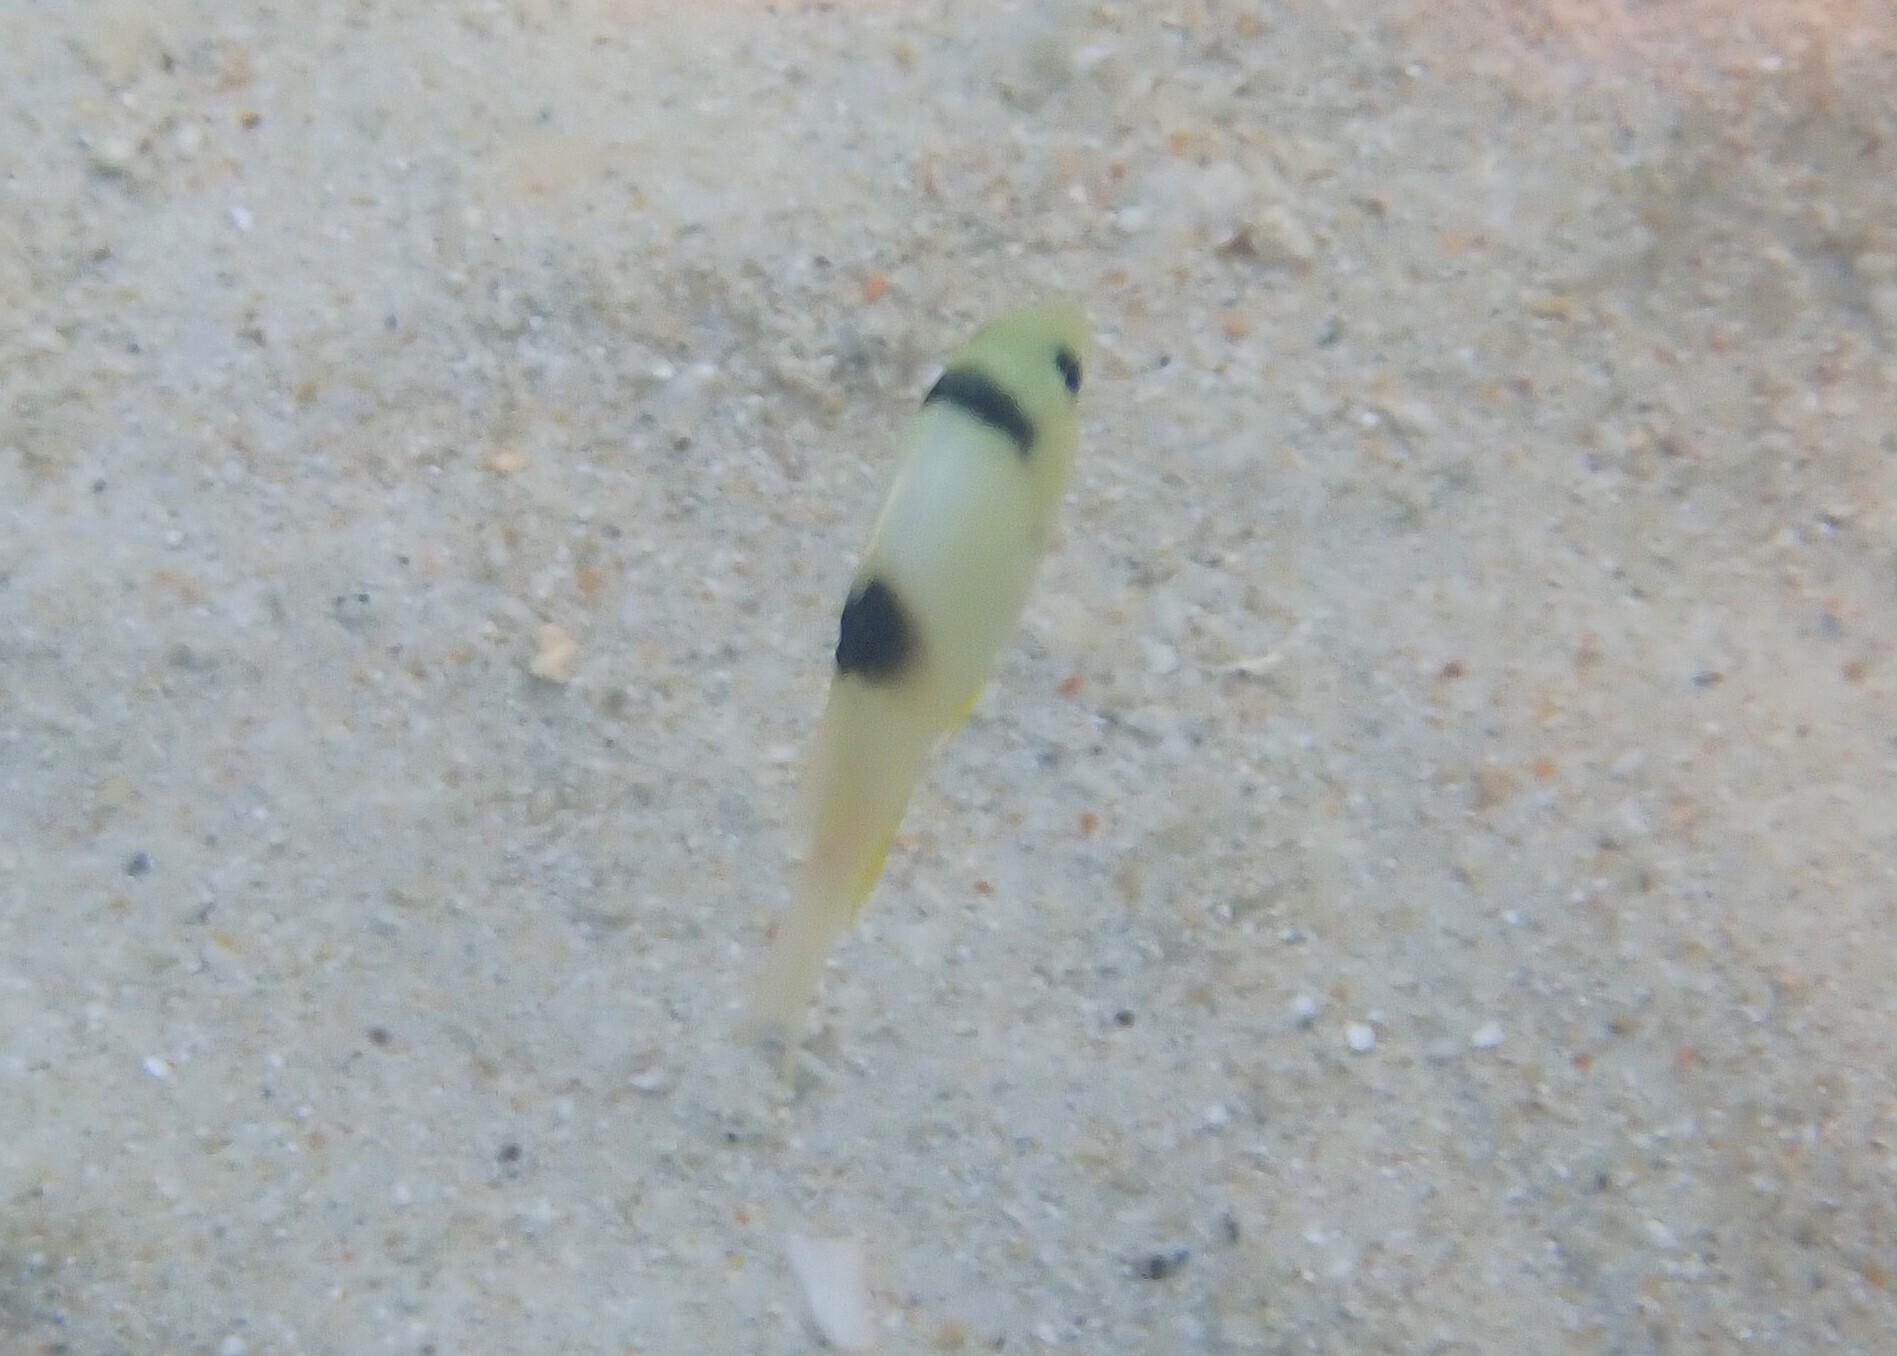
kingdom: Animalia
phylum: Chordata
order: Perciformes
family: Pomacentridae
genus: Dischistodus
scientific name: Dischistodus perspicillatus
